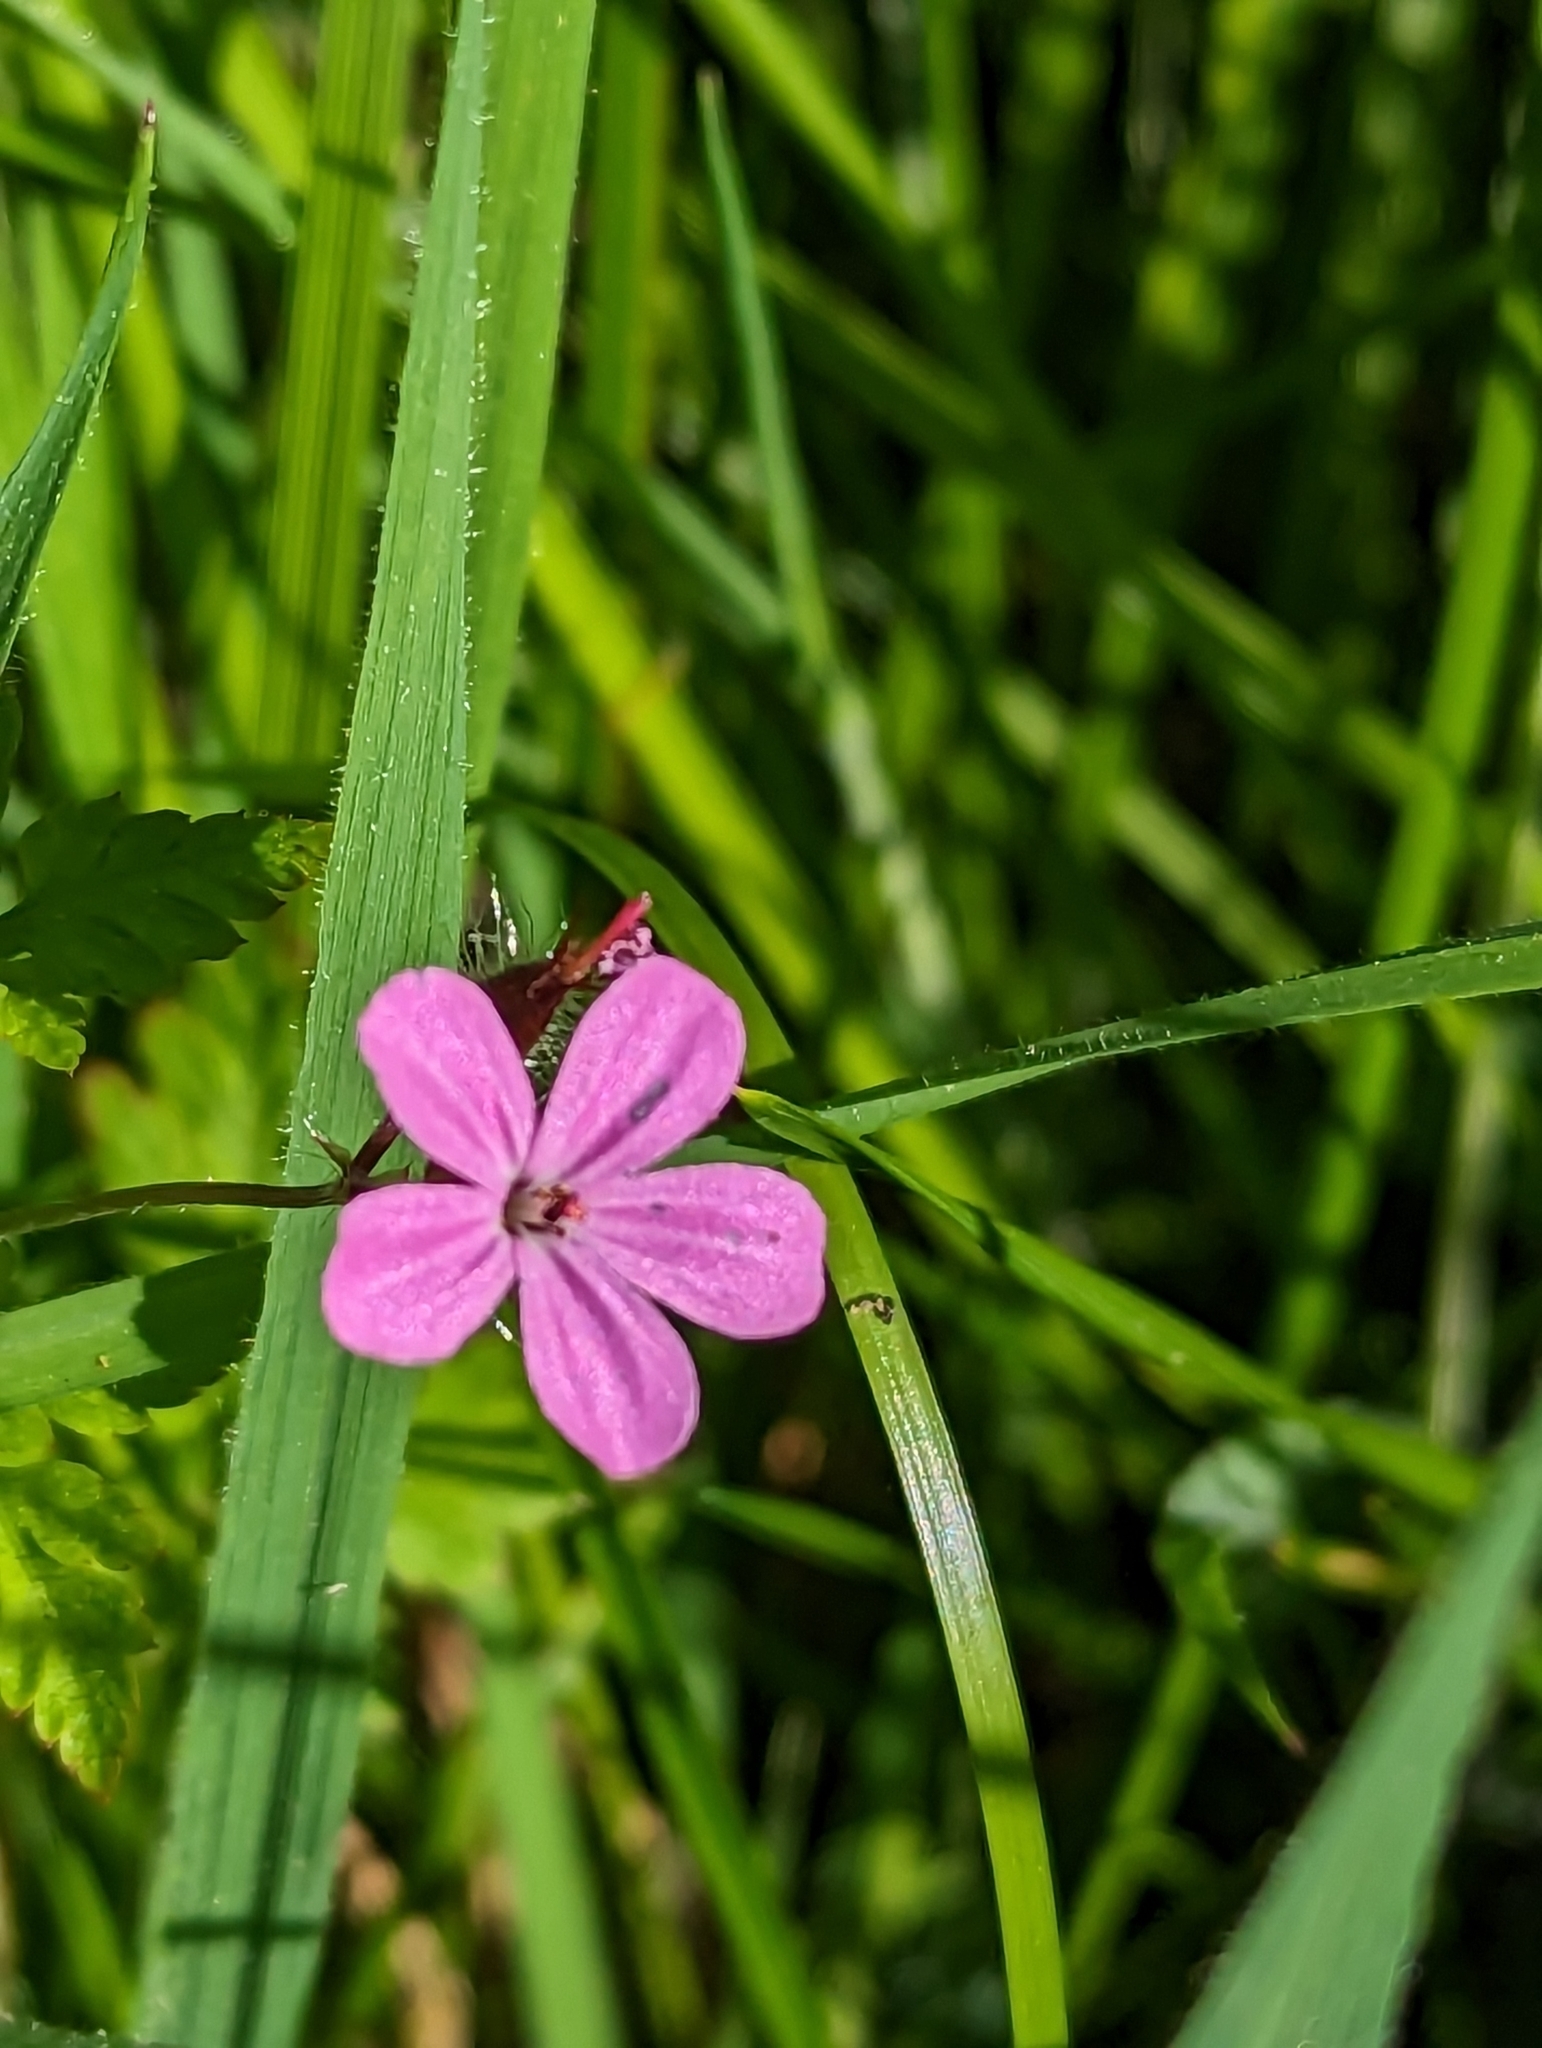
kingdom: Plantae
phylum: Tracheophyta
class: Magnoliopsida
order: Geraniales
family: Geraniaceae
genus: Geranium
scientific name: Geranium robertianum
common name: Herb-robert
